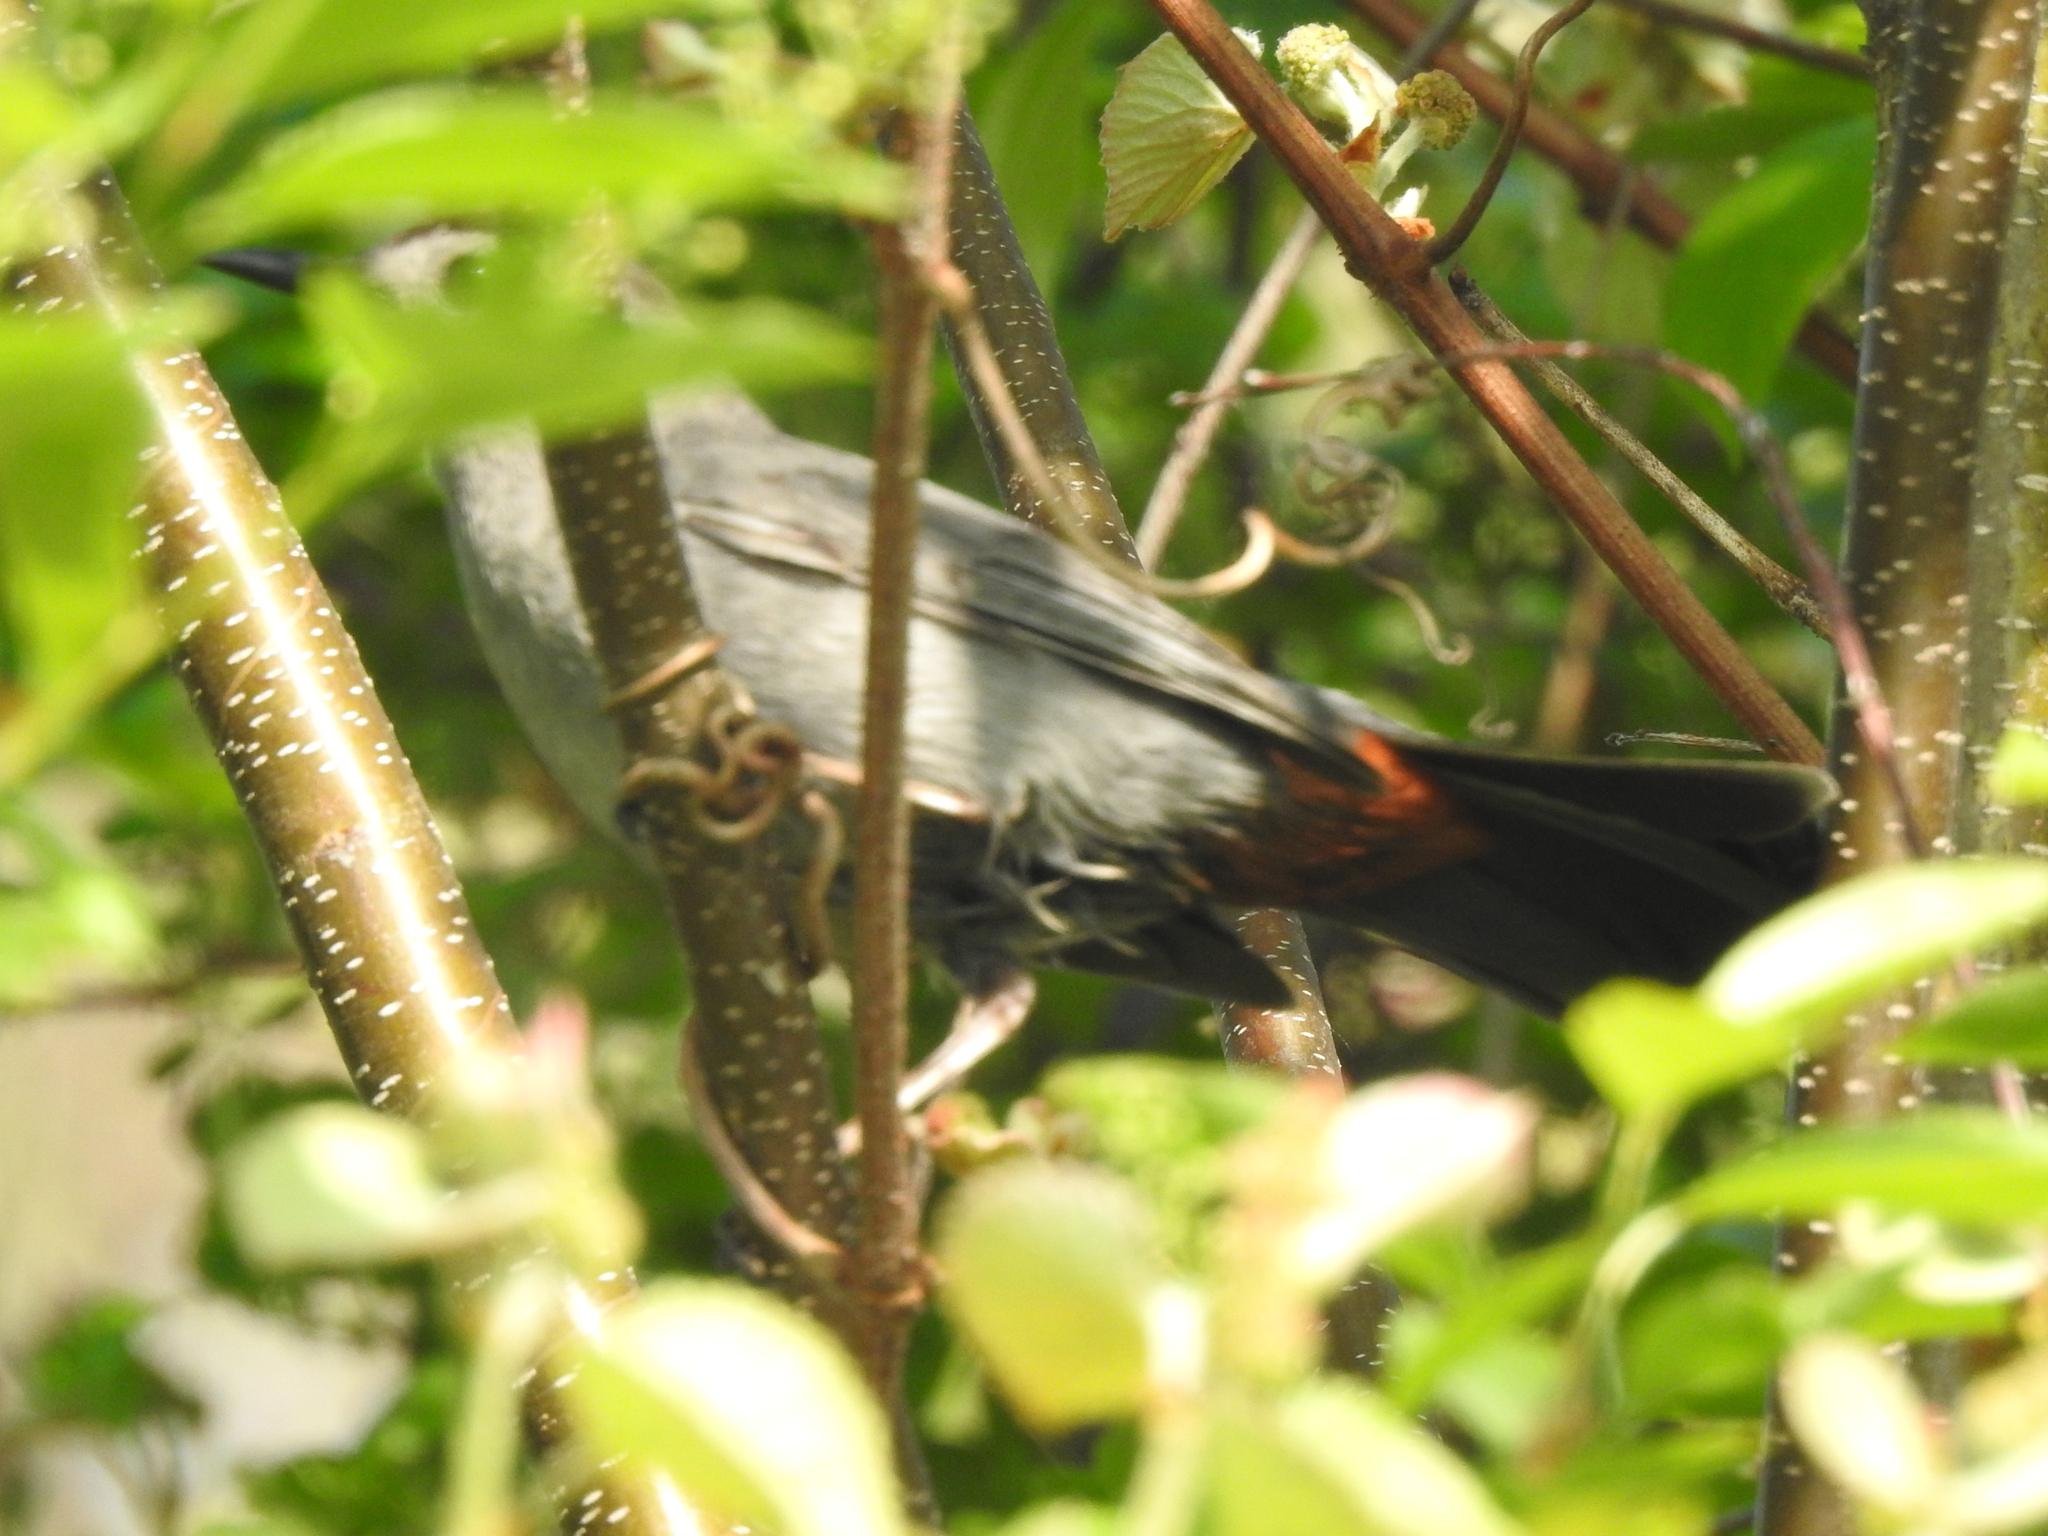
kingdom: Animalia
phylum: Chordata
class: Aves
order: Passeriformes
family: Mimidae
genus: Dumetella
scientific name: Dumetella carolinensis
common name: Gray catbird
